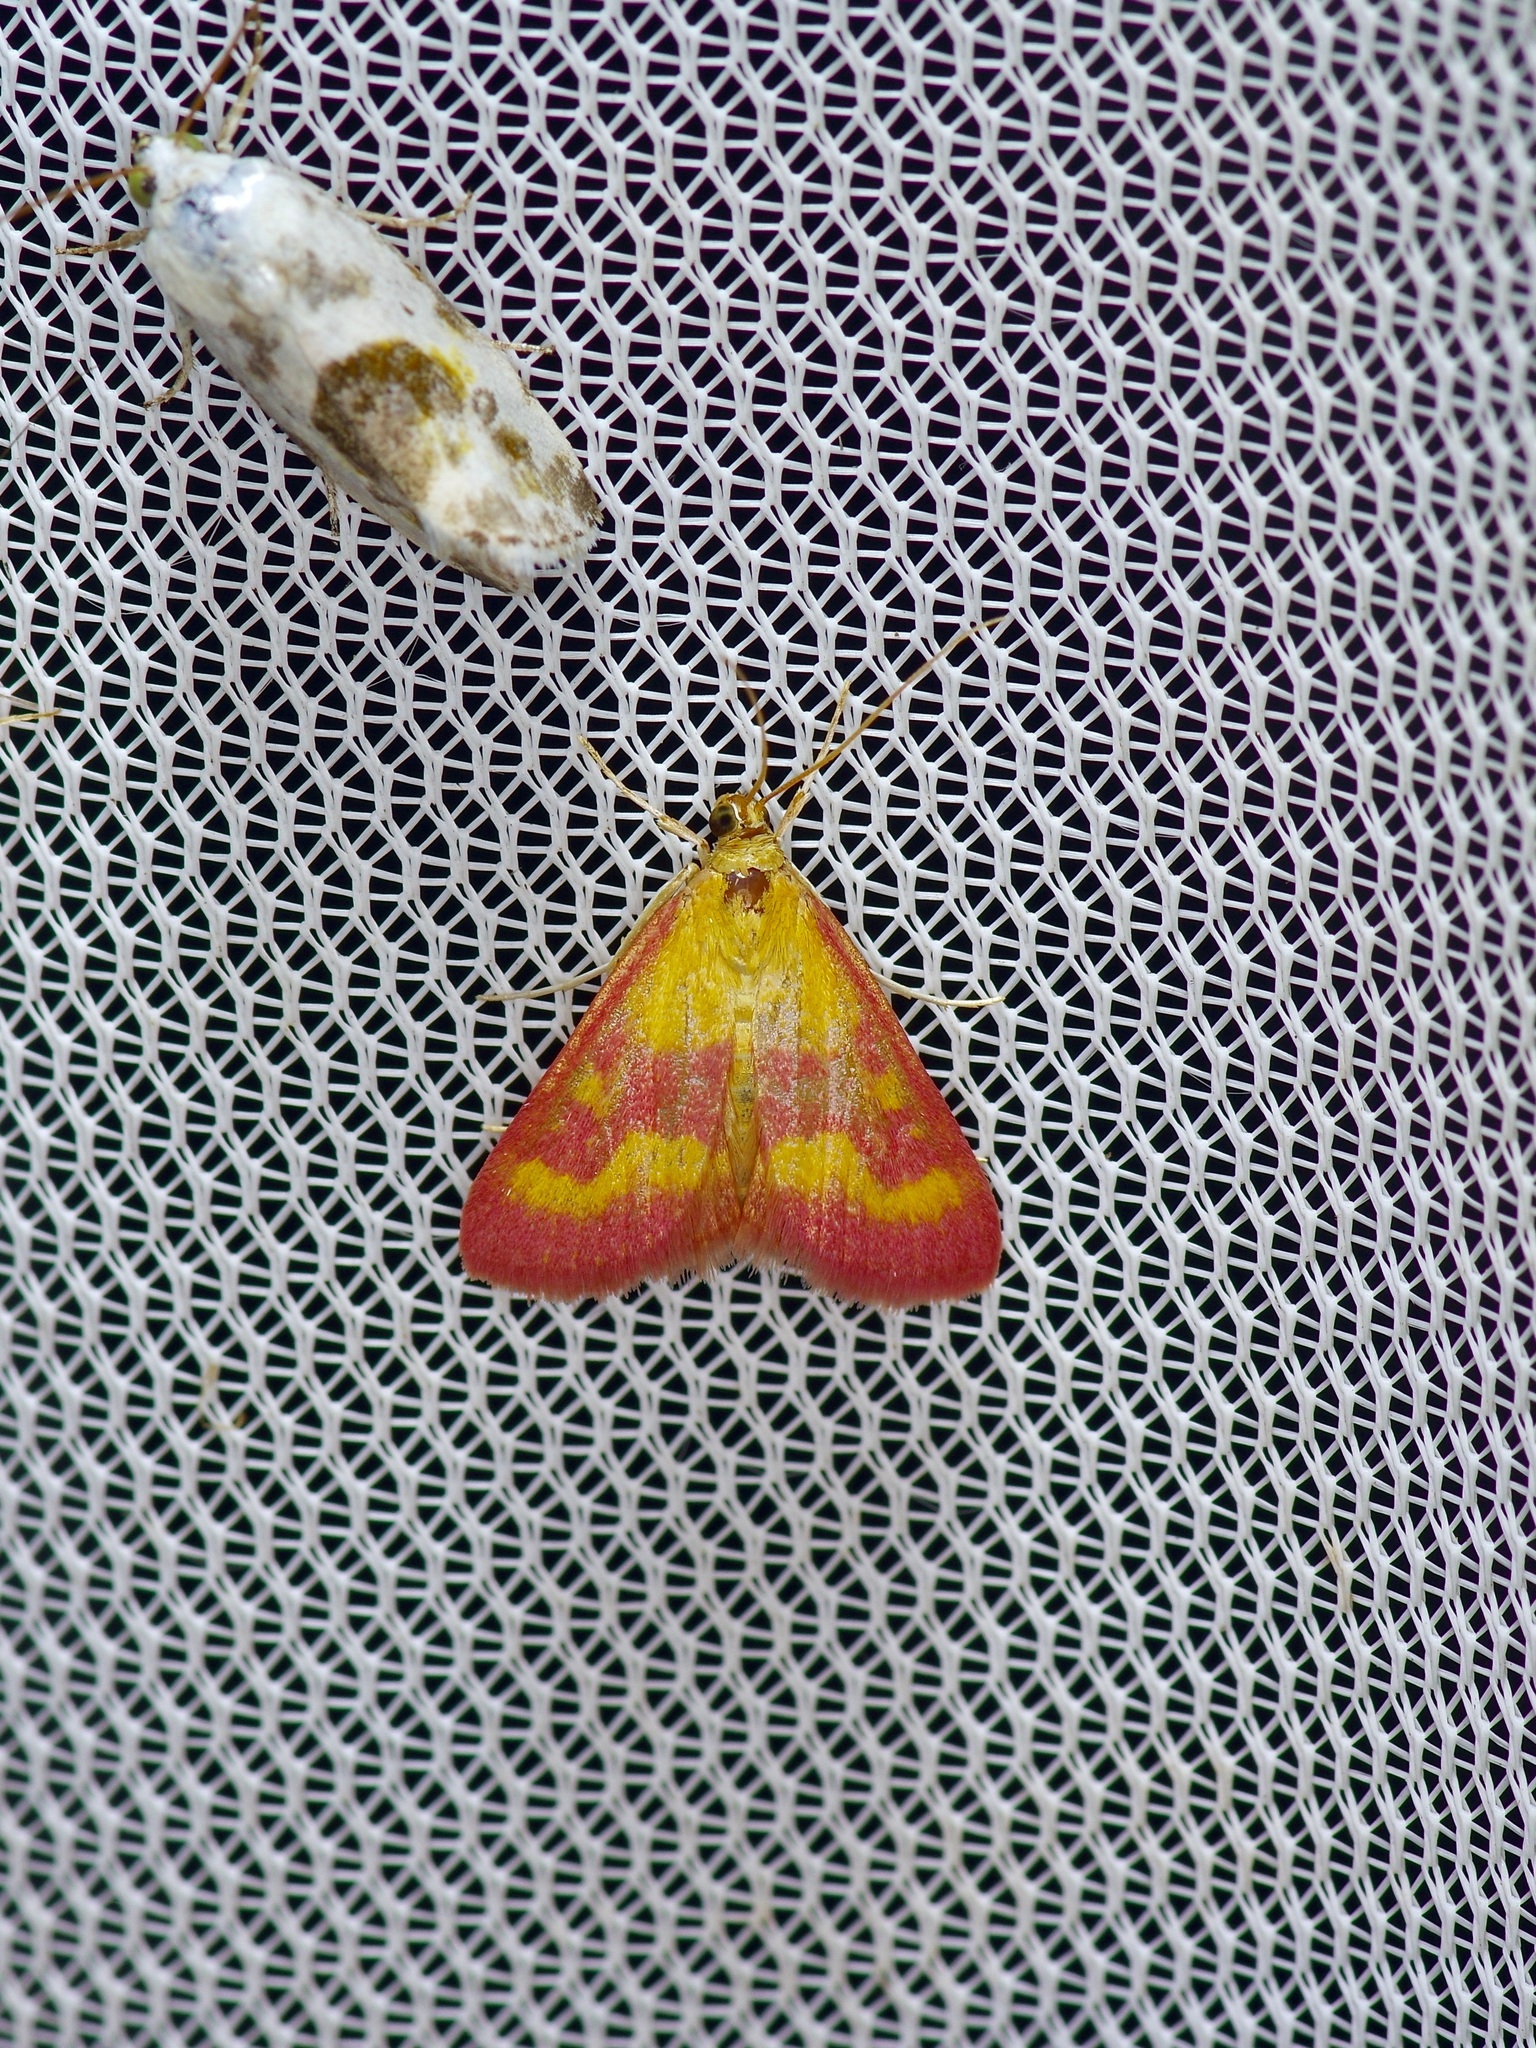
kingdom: Animalia
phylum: Arthropoda
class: Insecta
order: Lepidoptera
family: Crambidae
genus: Pyrausta
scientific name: Pyrausta laticlavia
